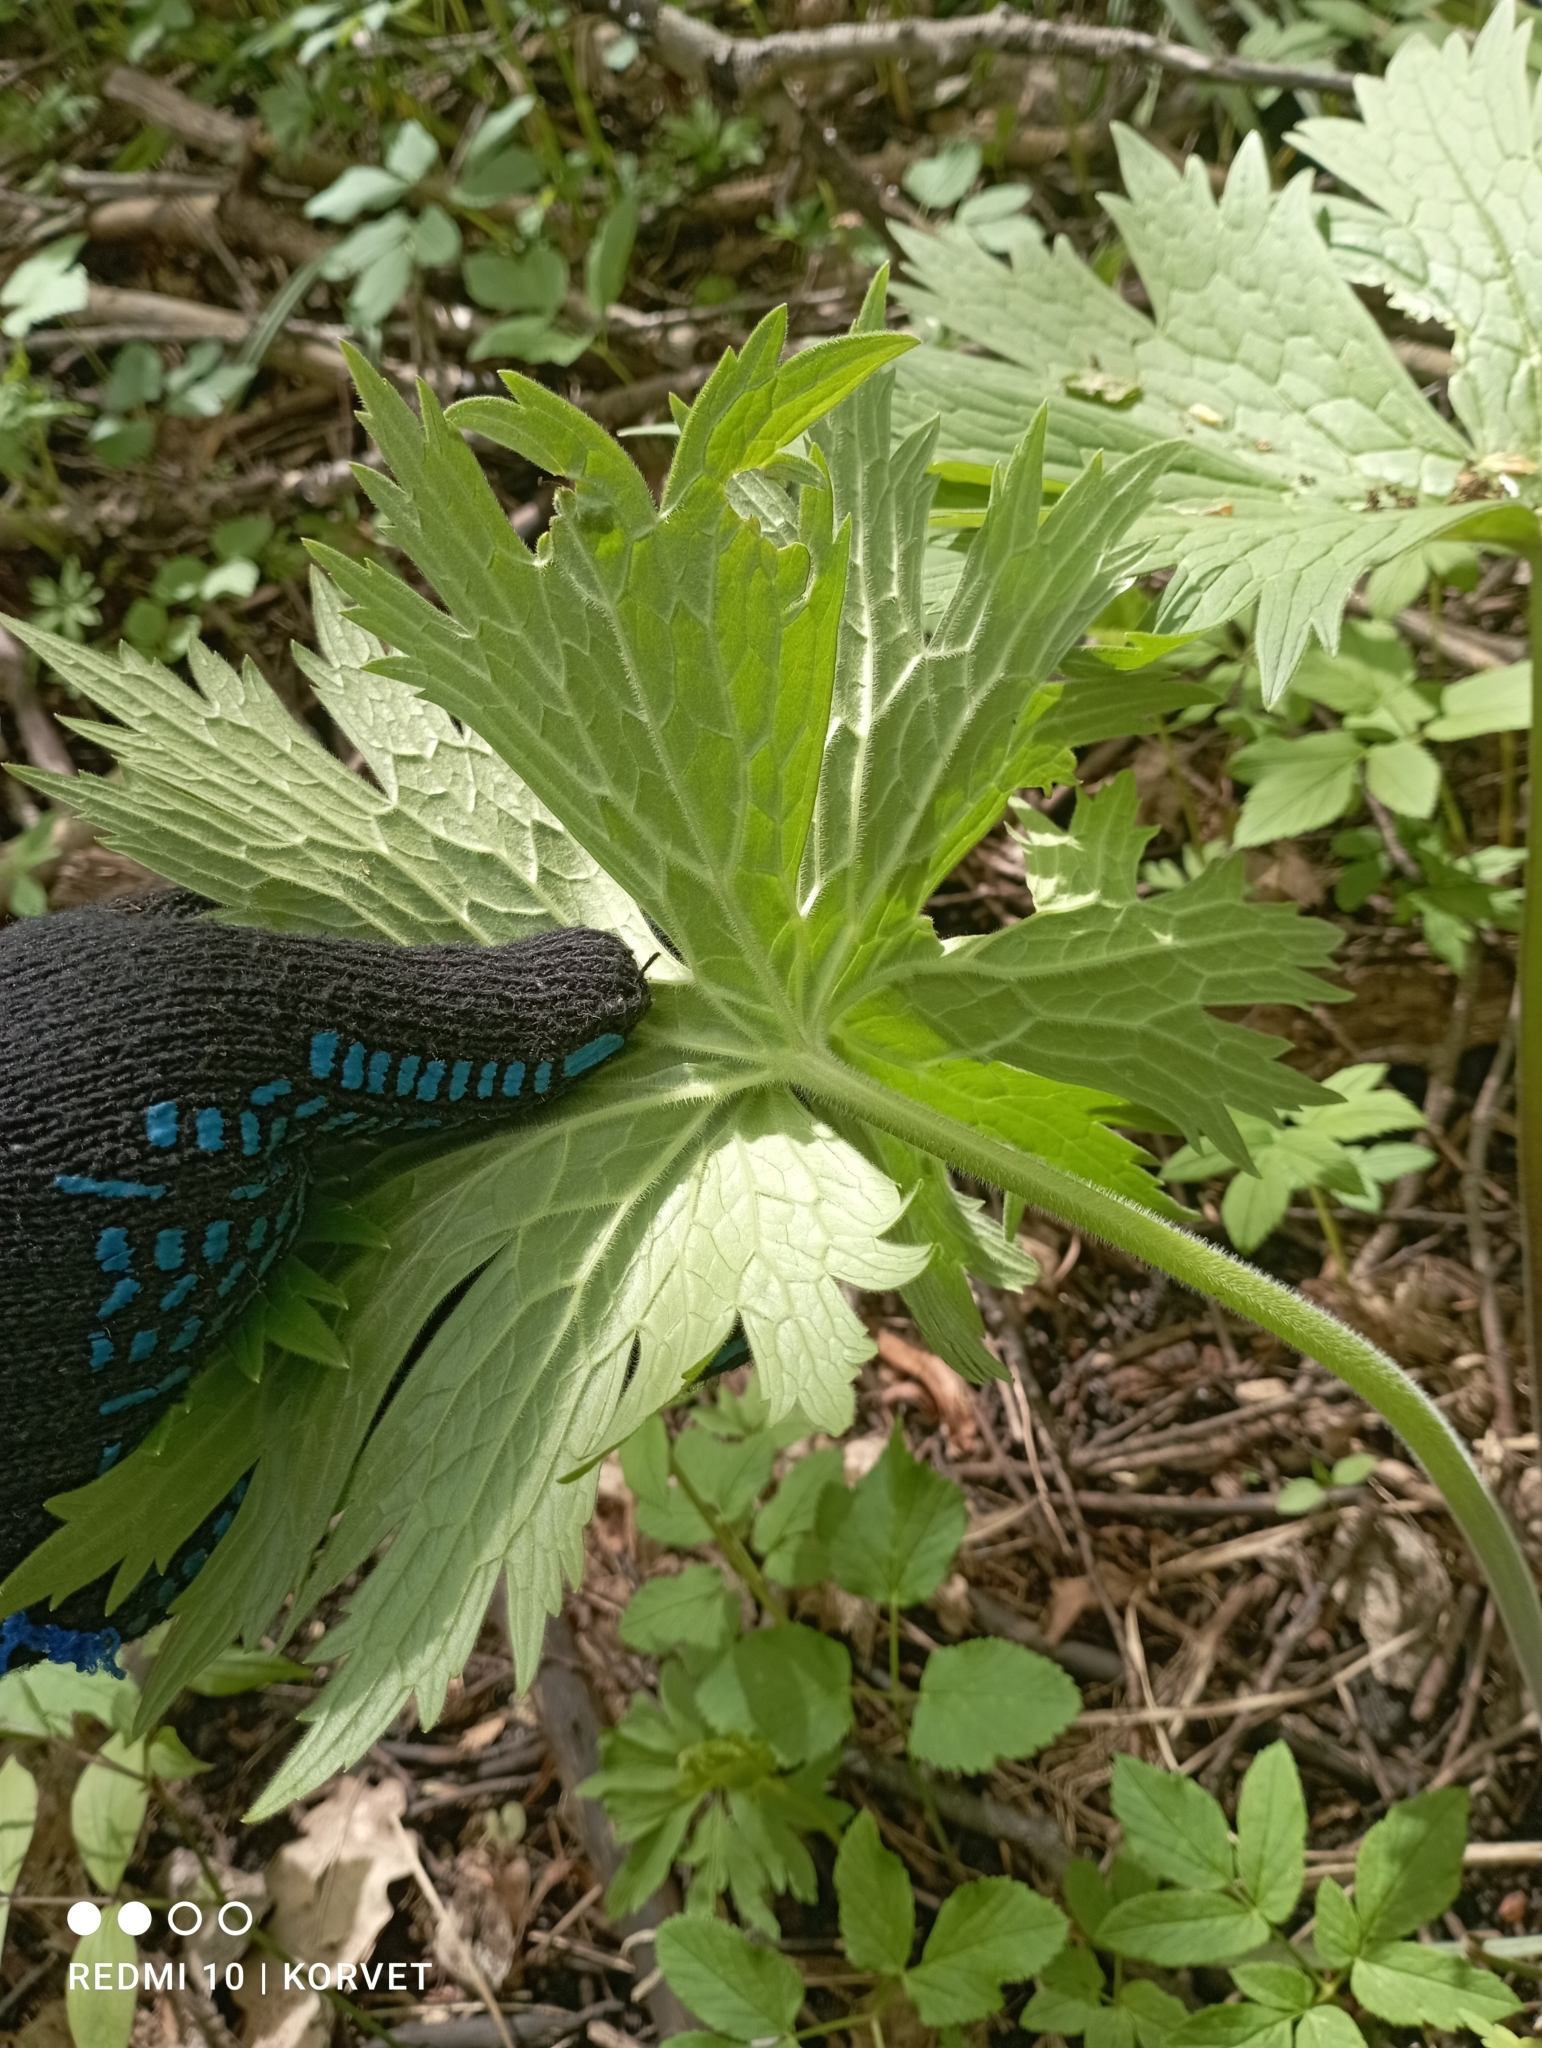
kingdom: Plantae
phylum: Tracheophyta
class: Magnoliopsida
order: Ranunculales
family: Ranunculaceae
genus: Aconitum
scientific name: Aconitum septentrionale
